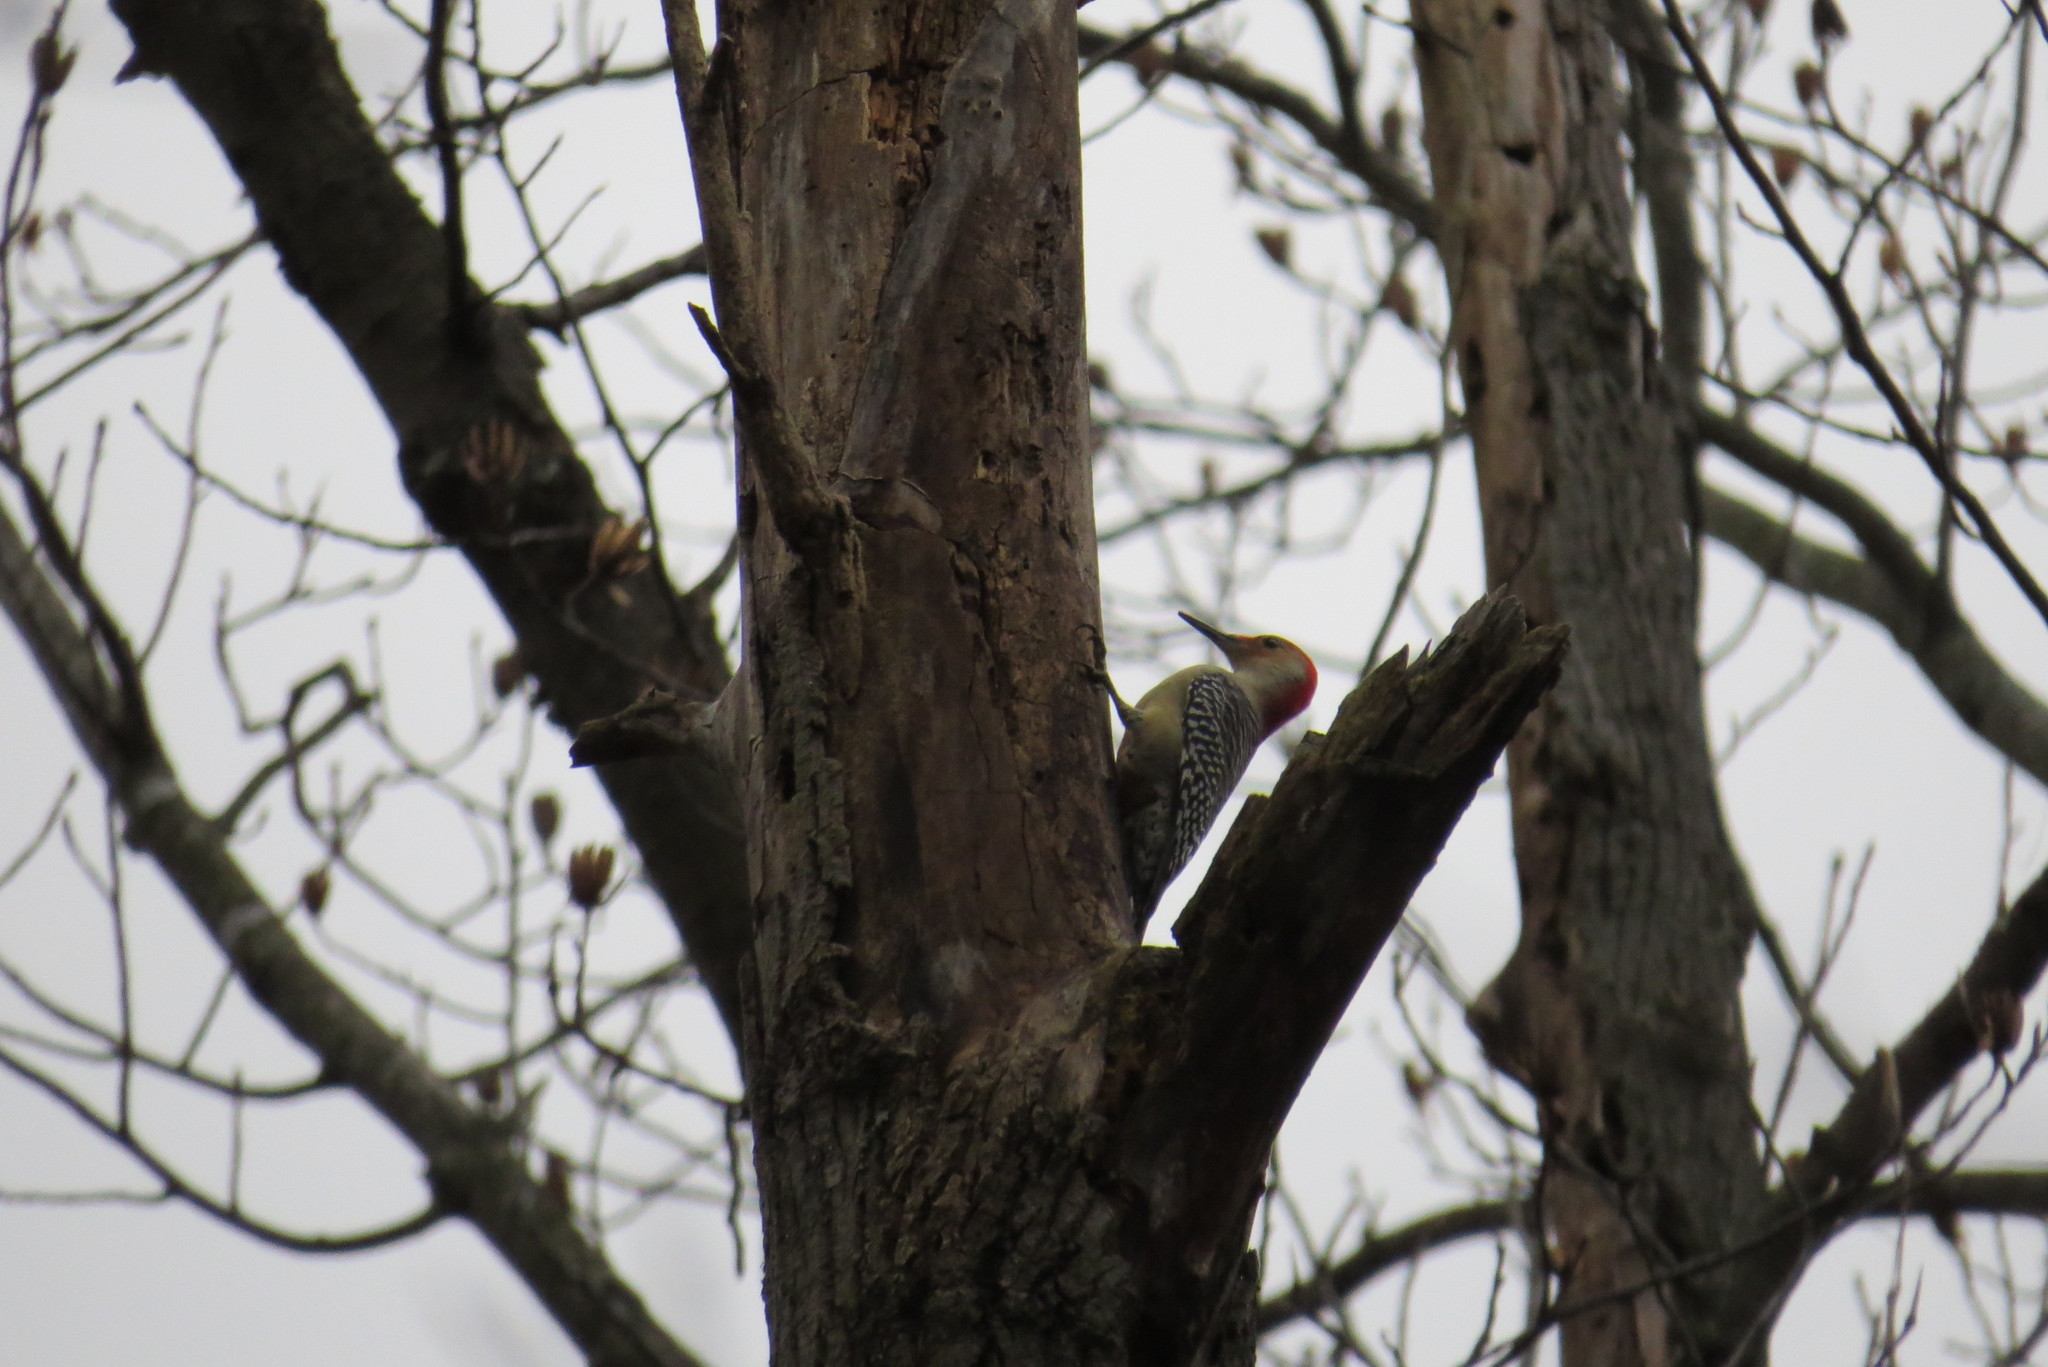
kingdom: Animalia
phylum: Chordata
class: Aves
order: Piciformes
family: Picidae
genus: Melanerpes
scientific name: Melanerpes carolinus
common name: Red-bellied woodpecker
